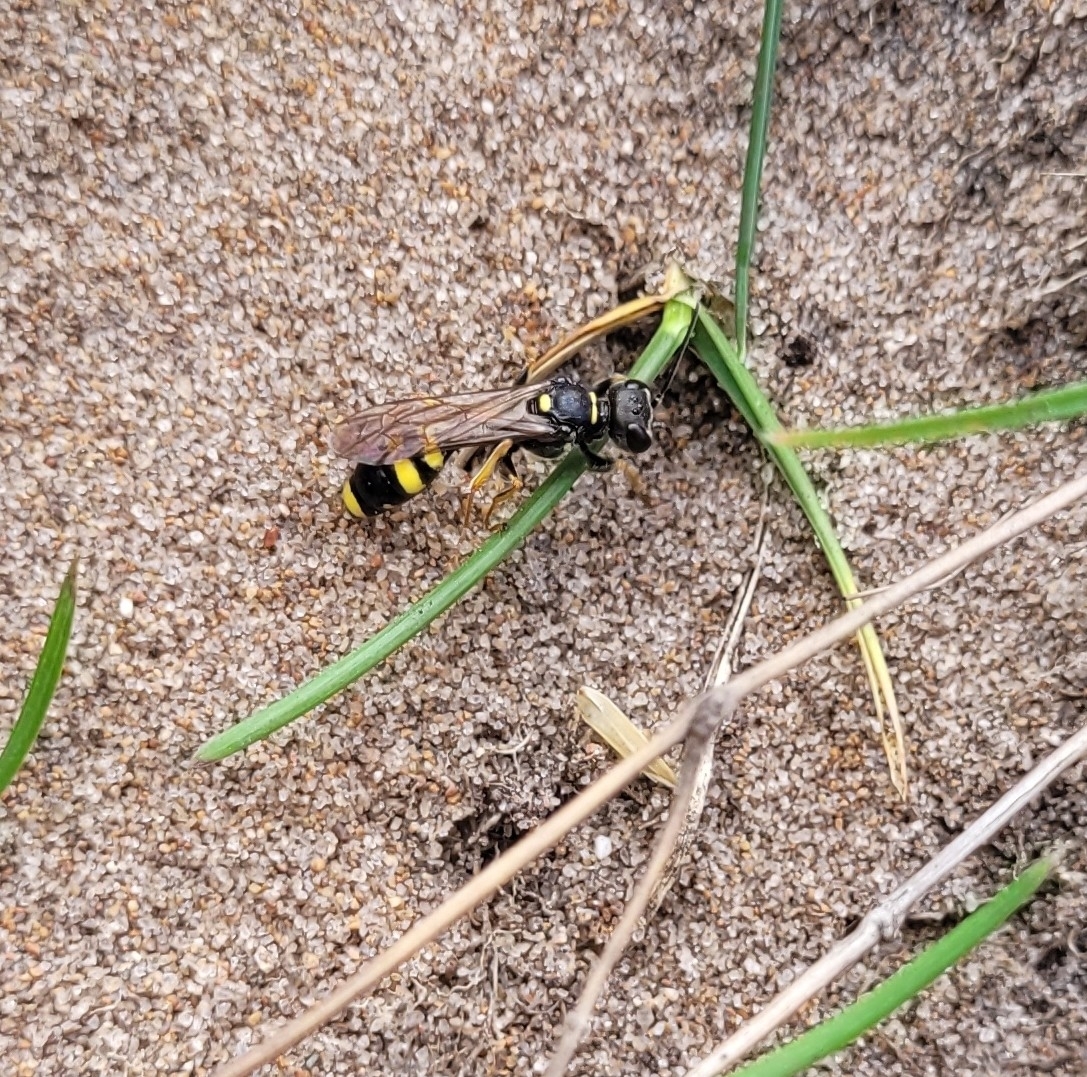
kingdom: Animalia
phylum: Arthropoda
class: Insecta
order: Hymenoptera
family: Crabronidae
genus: Mellinus
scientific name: Mellinus arvensis
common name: Field digger wasp
